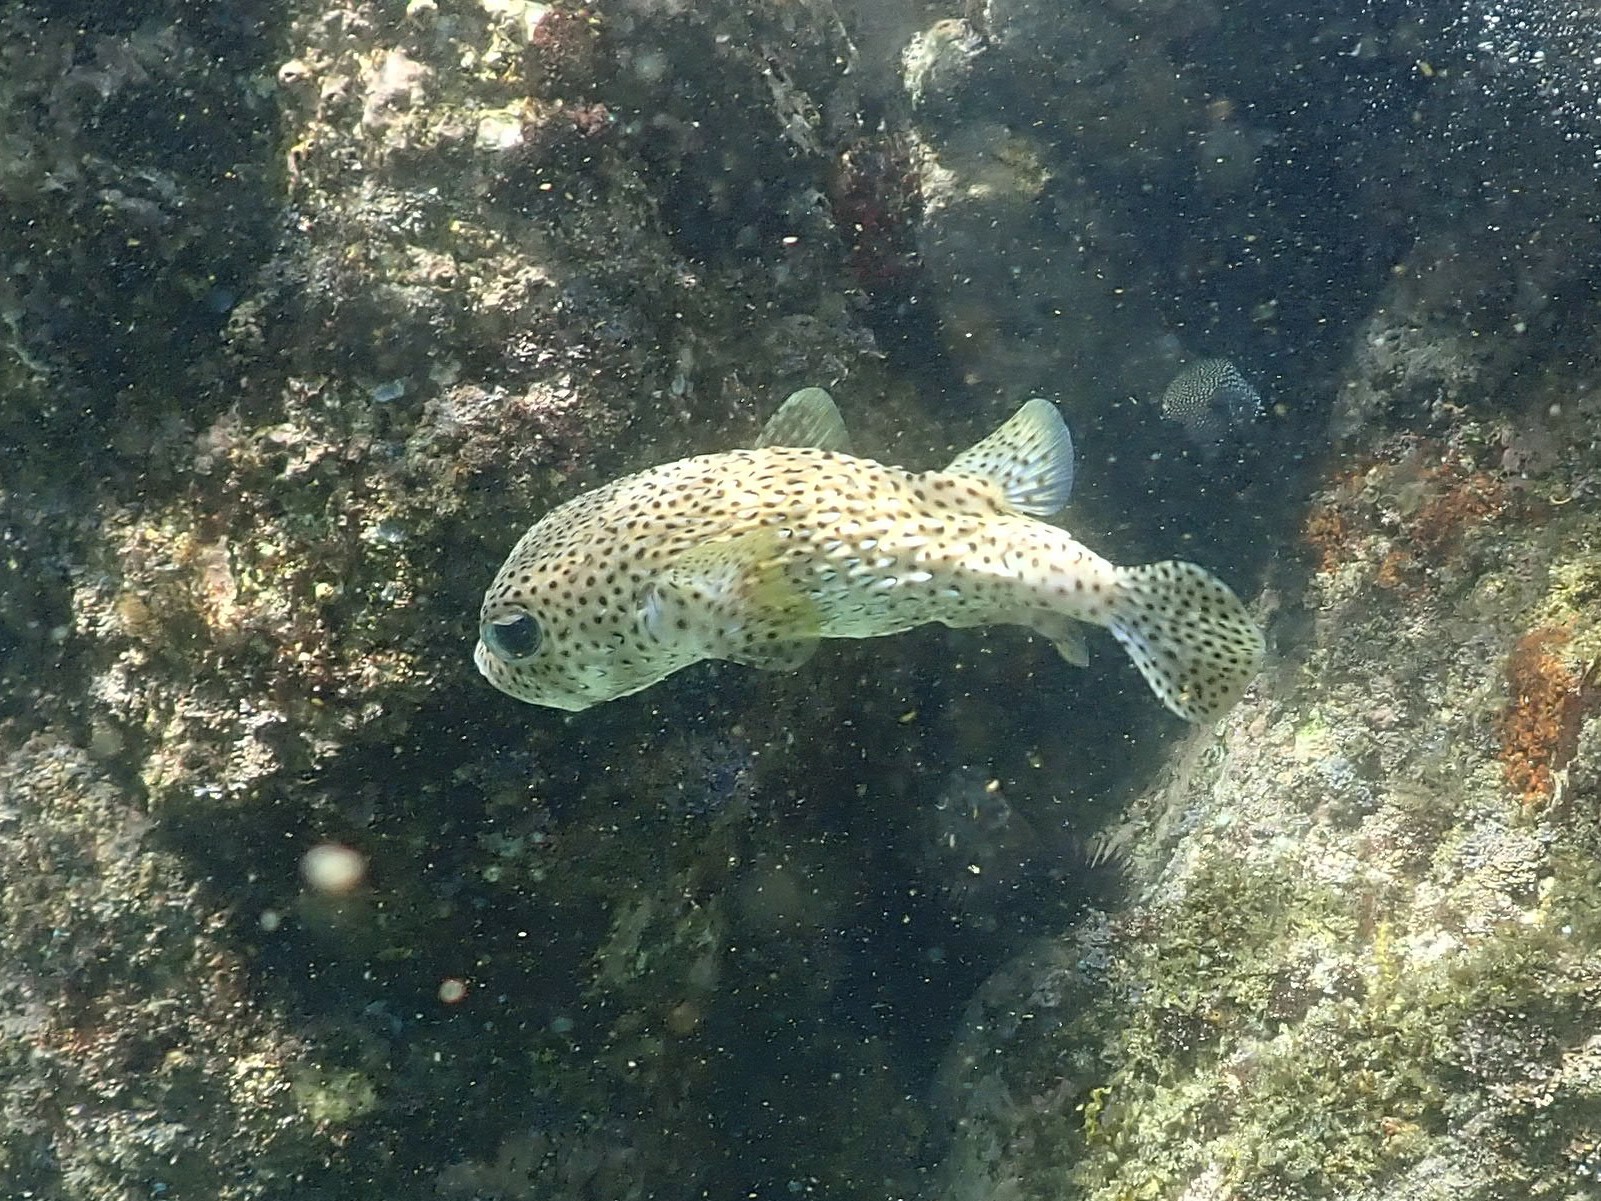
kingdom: Animalia
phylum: Chordata
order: Tetraodontiformes
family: Diodontidae
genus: Diodon
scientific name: Diodon hystrix
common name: Giant porcupinefish
